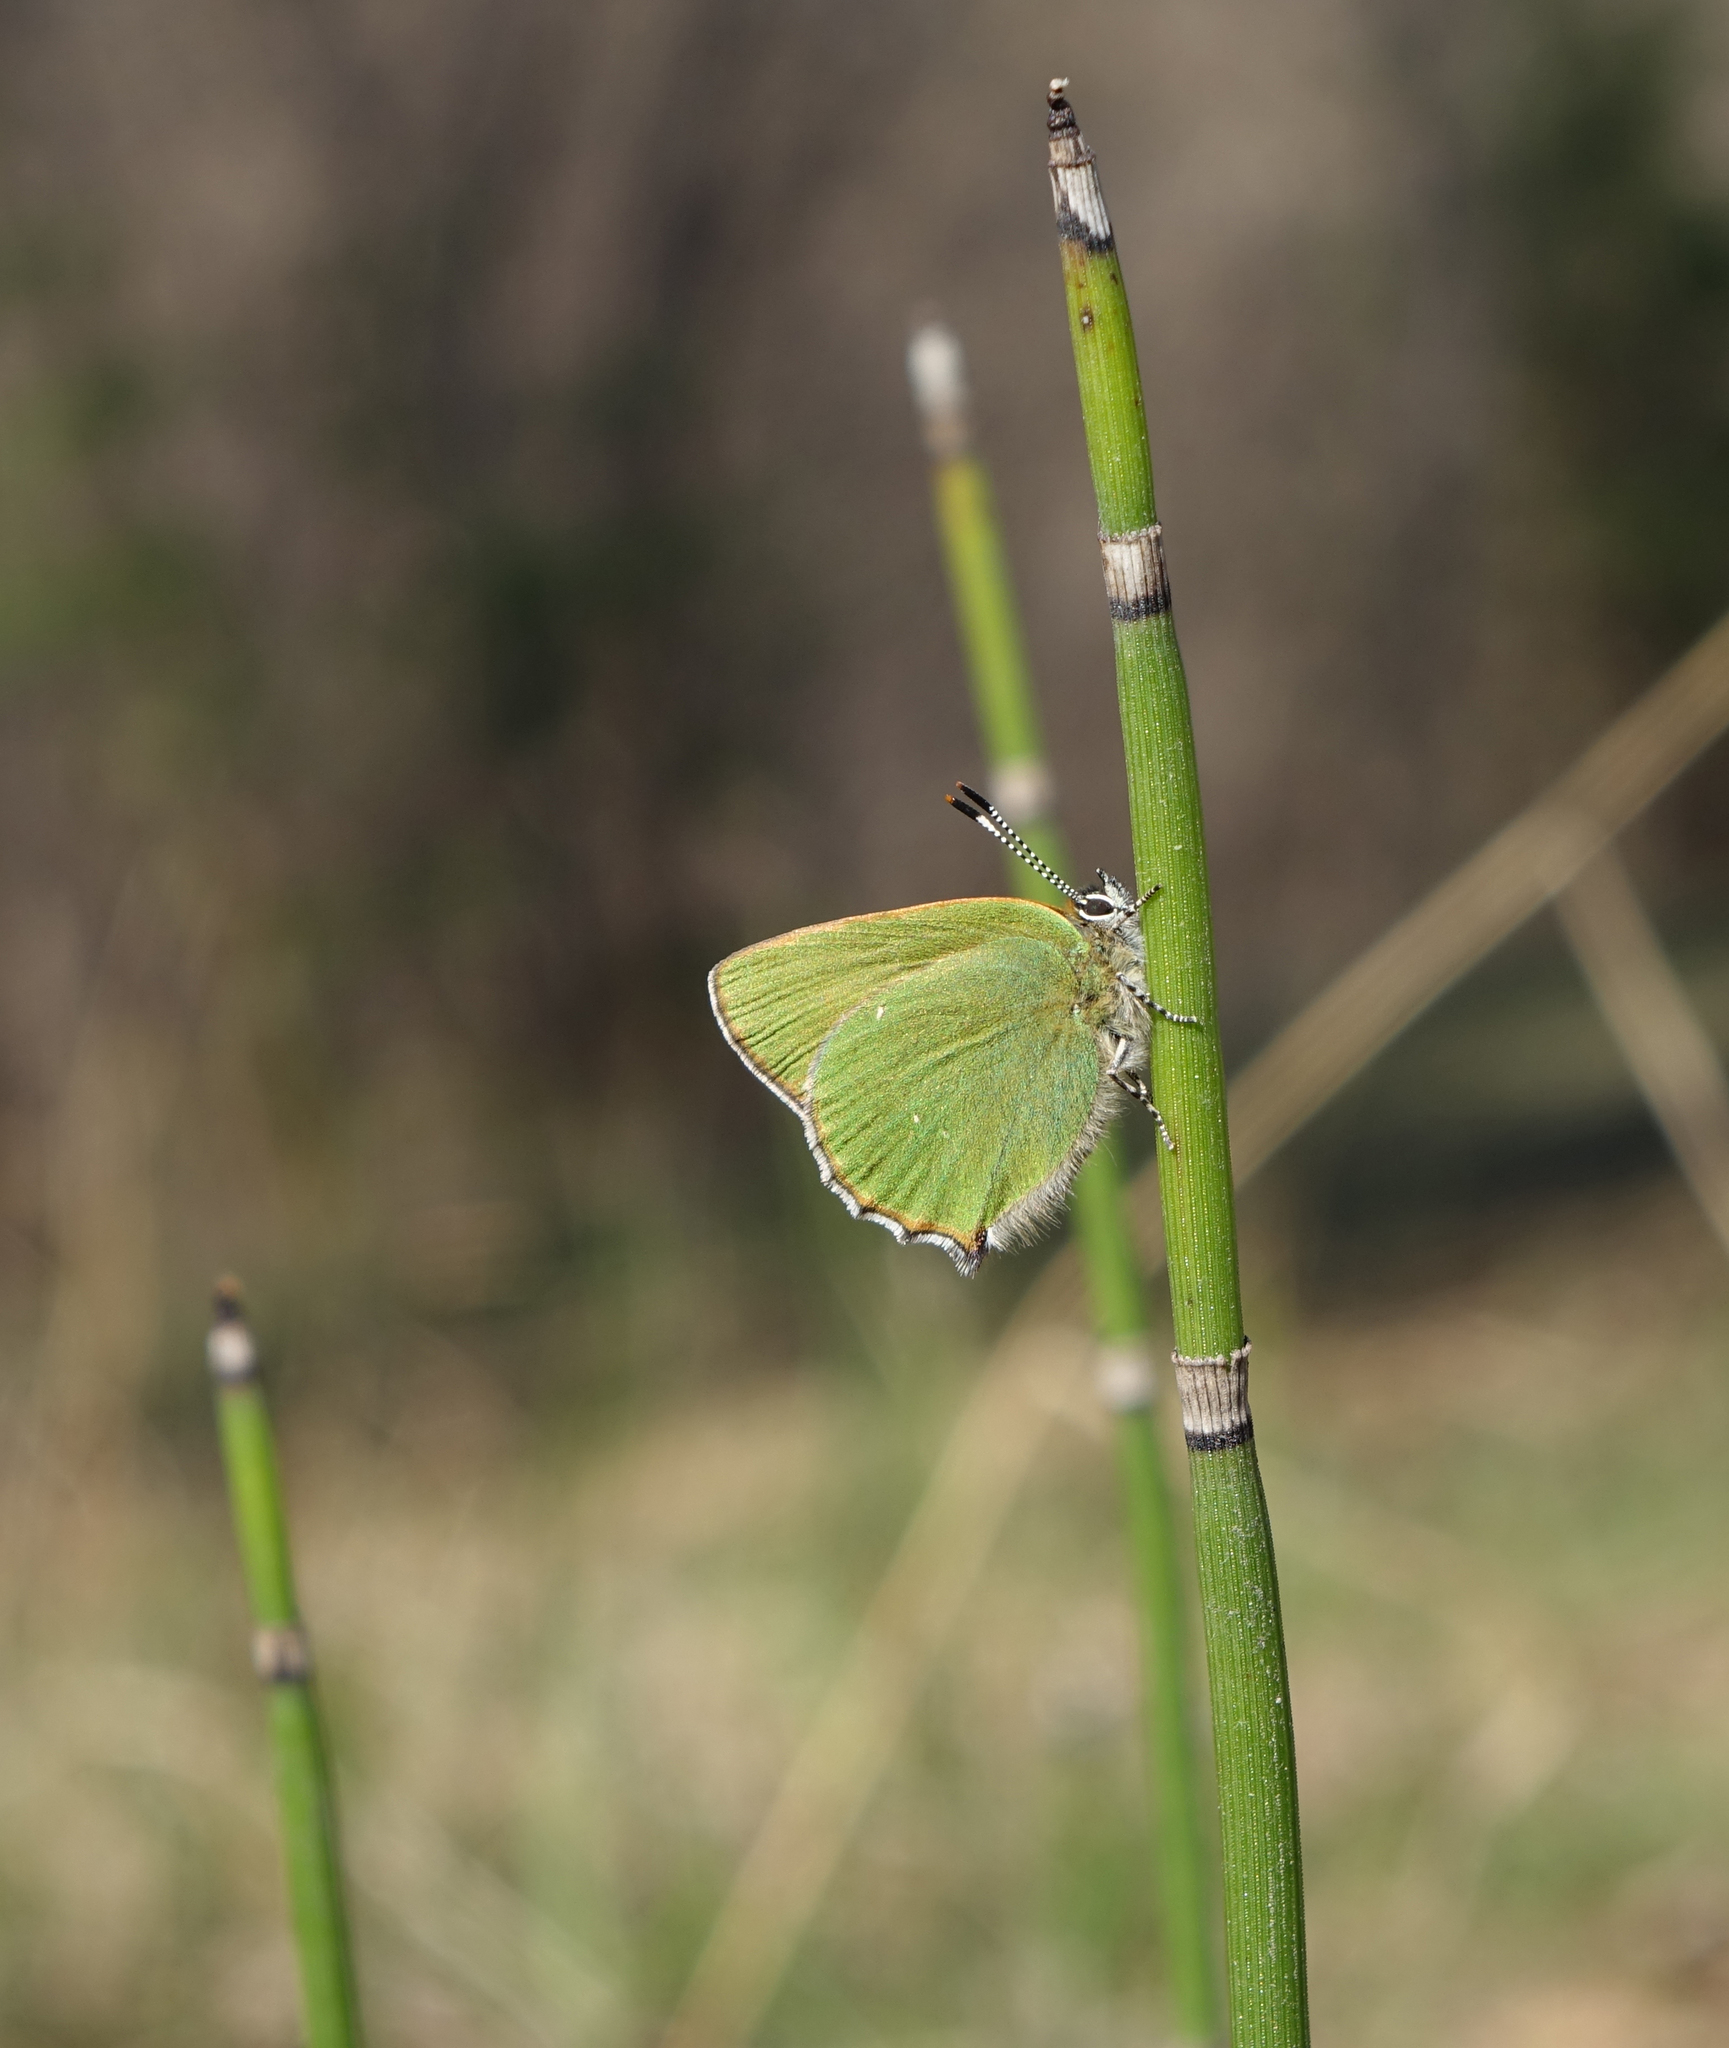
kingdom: Animalia
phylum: Arthropoda
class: Insecta
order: Lepidoptera
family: Lycaenidae
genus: Callophrys
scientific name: Callophrys rubi
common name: Green hairstreak
